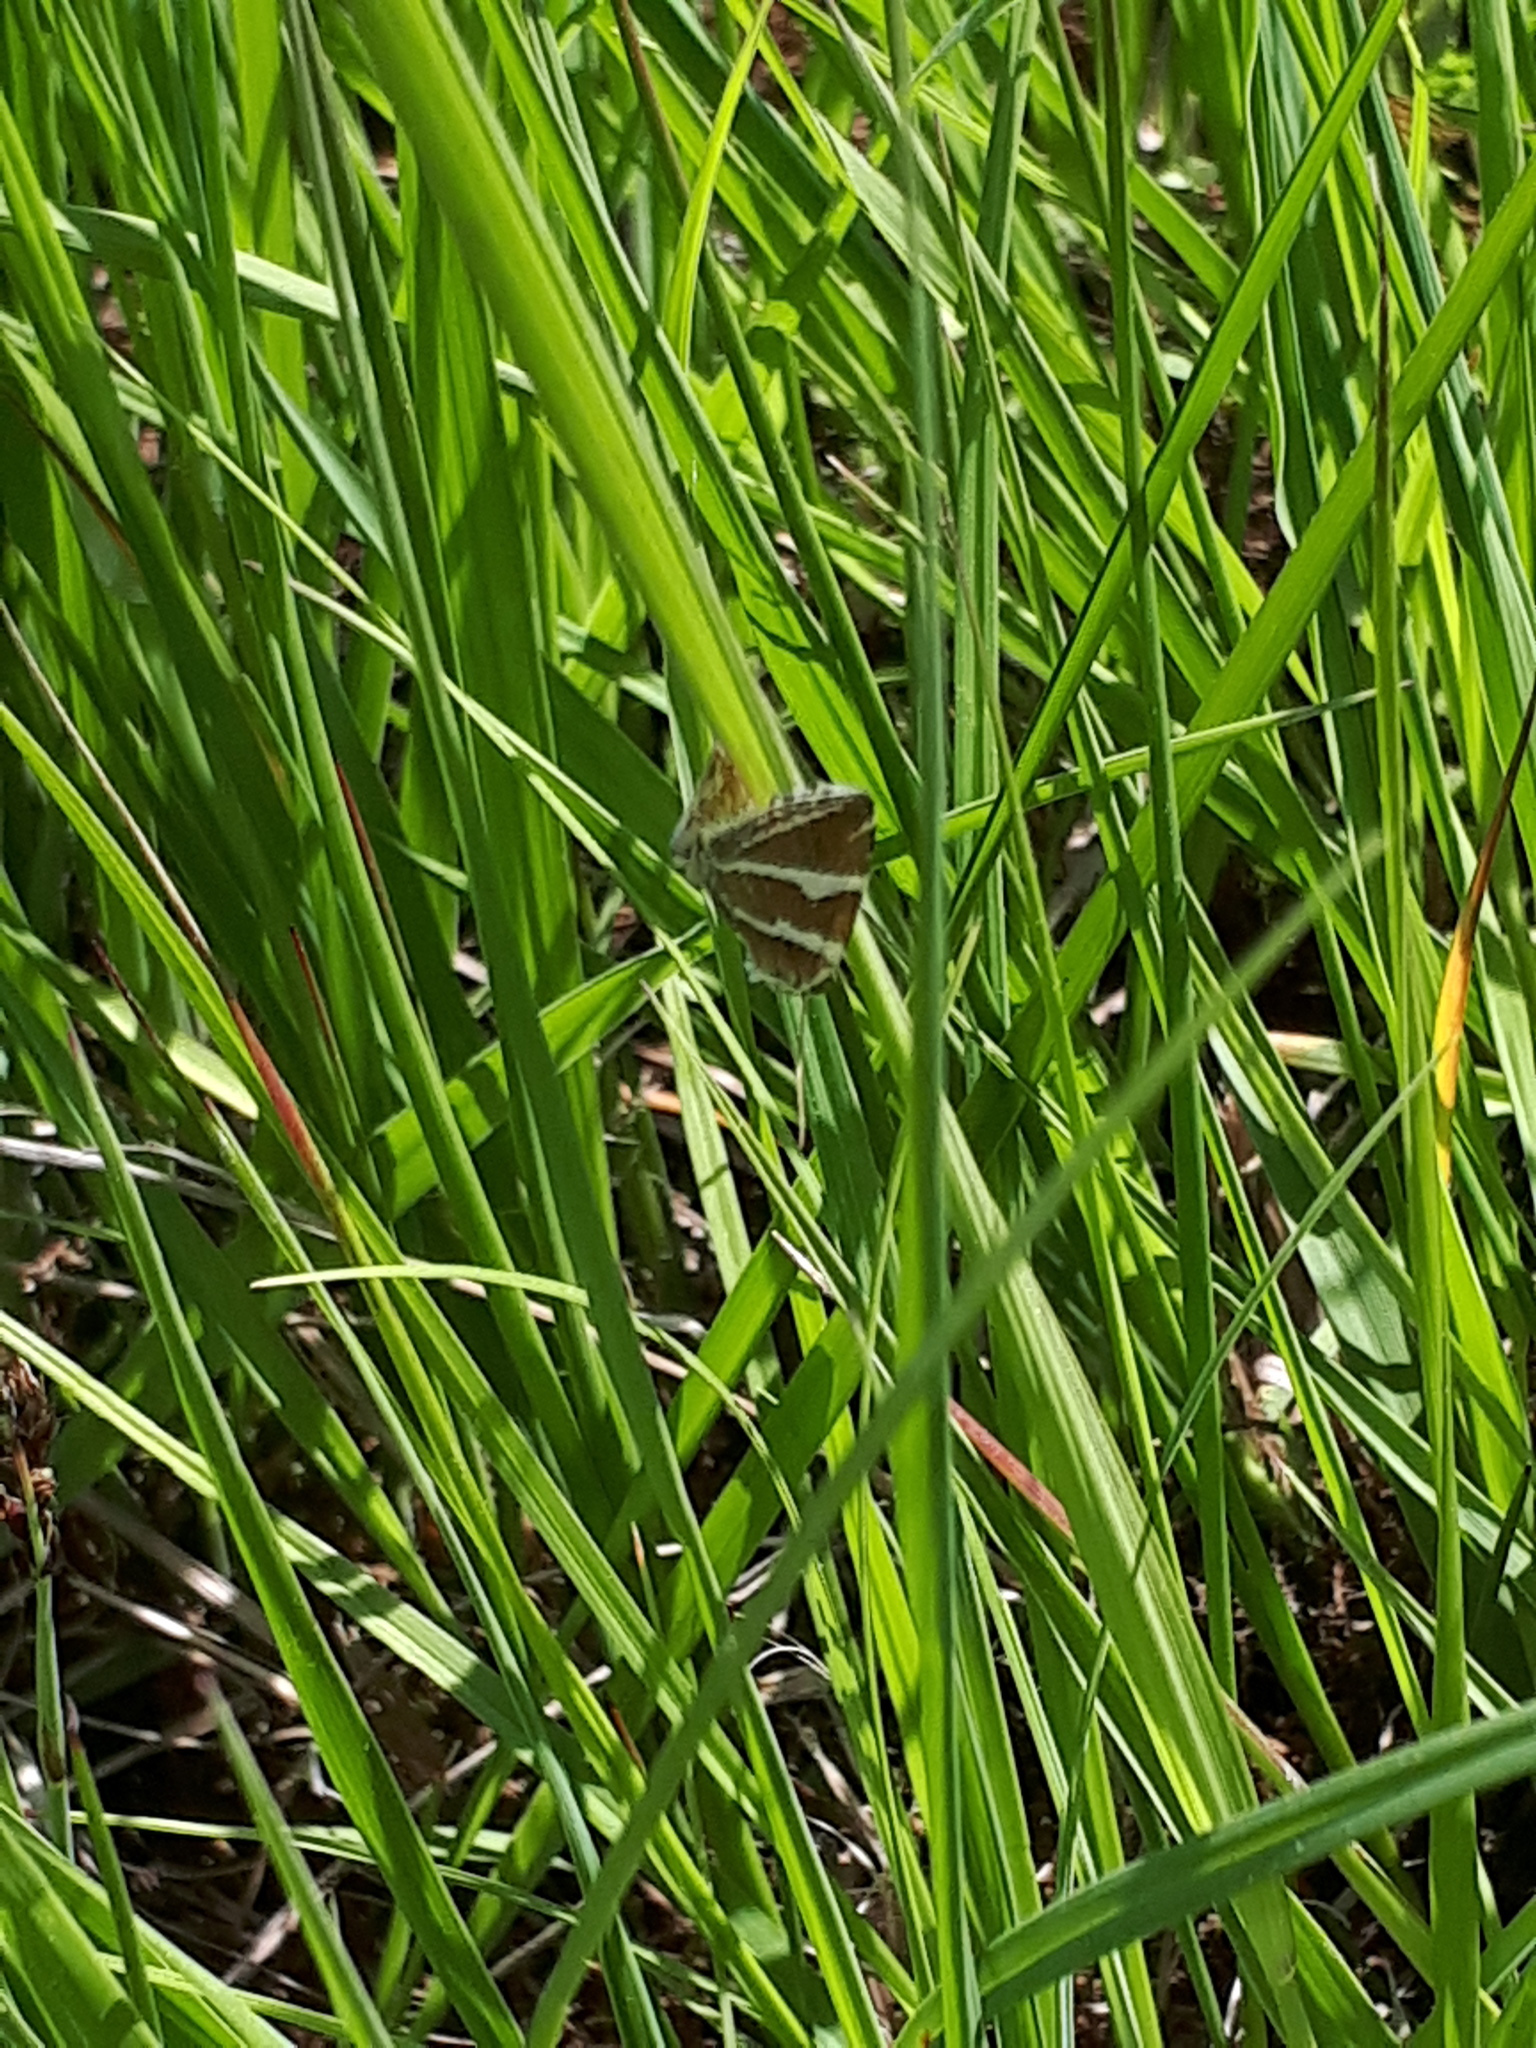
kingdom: Animalia
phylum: Arthropoda
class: Insecta
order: Lepidoptera
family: Noctuidae
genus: Deltote
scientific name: Deltote bankiana
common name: Silver barred
